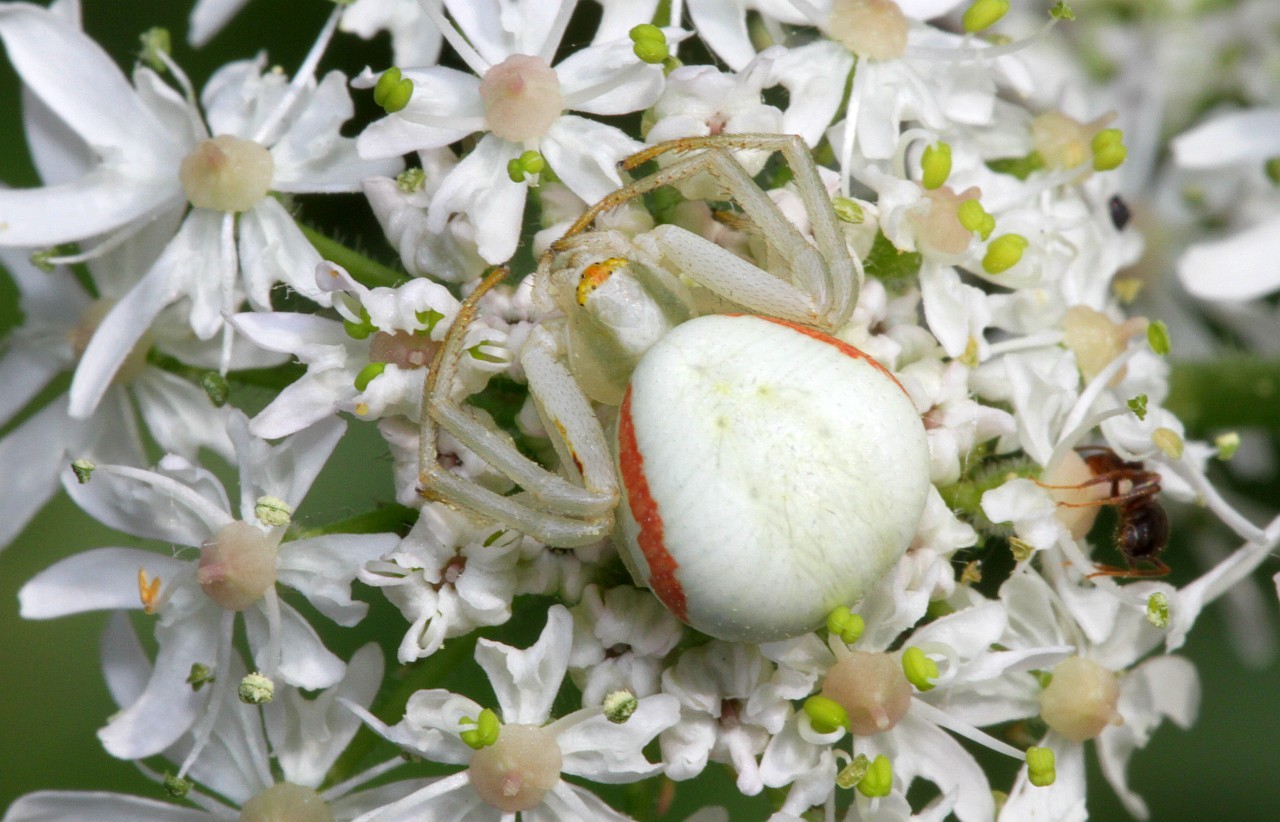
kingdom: Animalia
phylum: Arthropoda
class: Arachnida
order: Araneae
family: Thomisidae
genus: Misumena
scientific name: Misumena vatia
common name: Goldenrod crab spider
